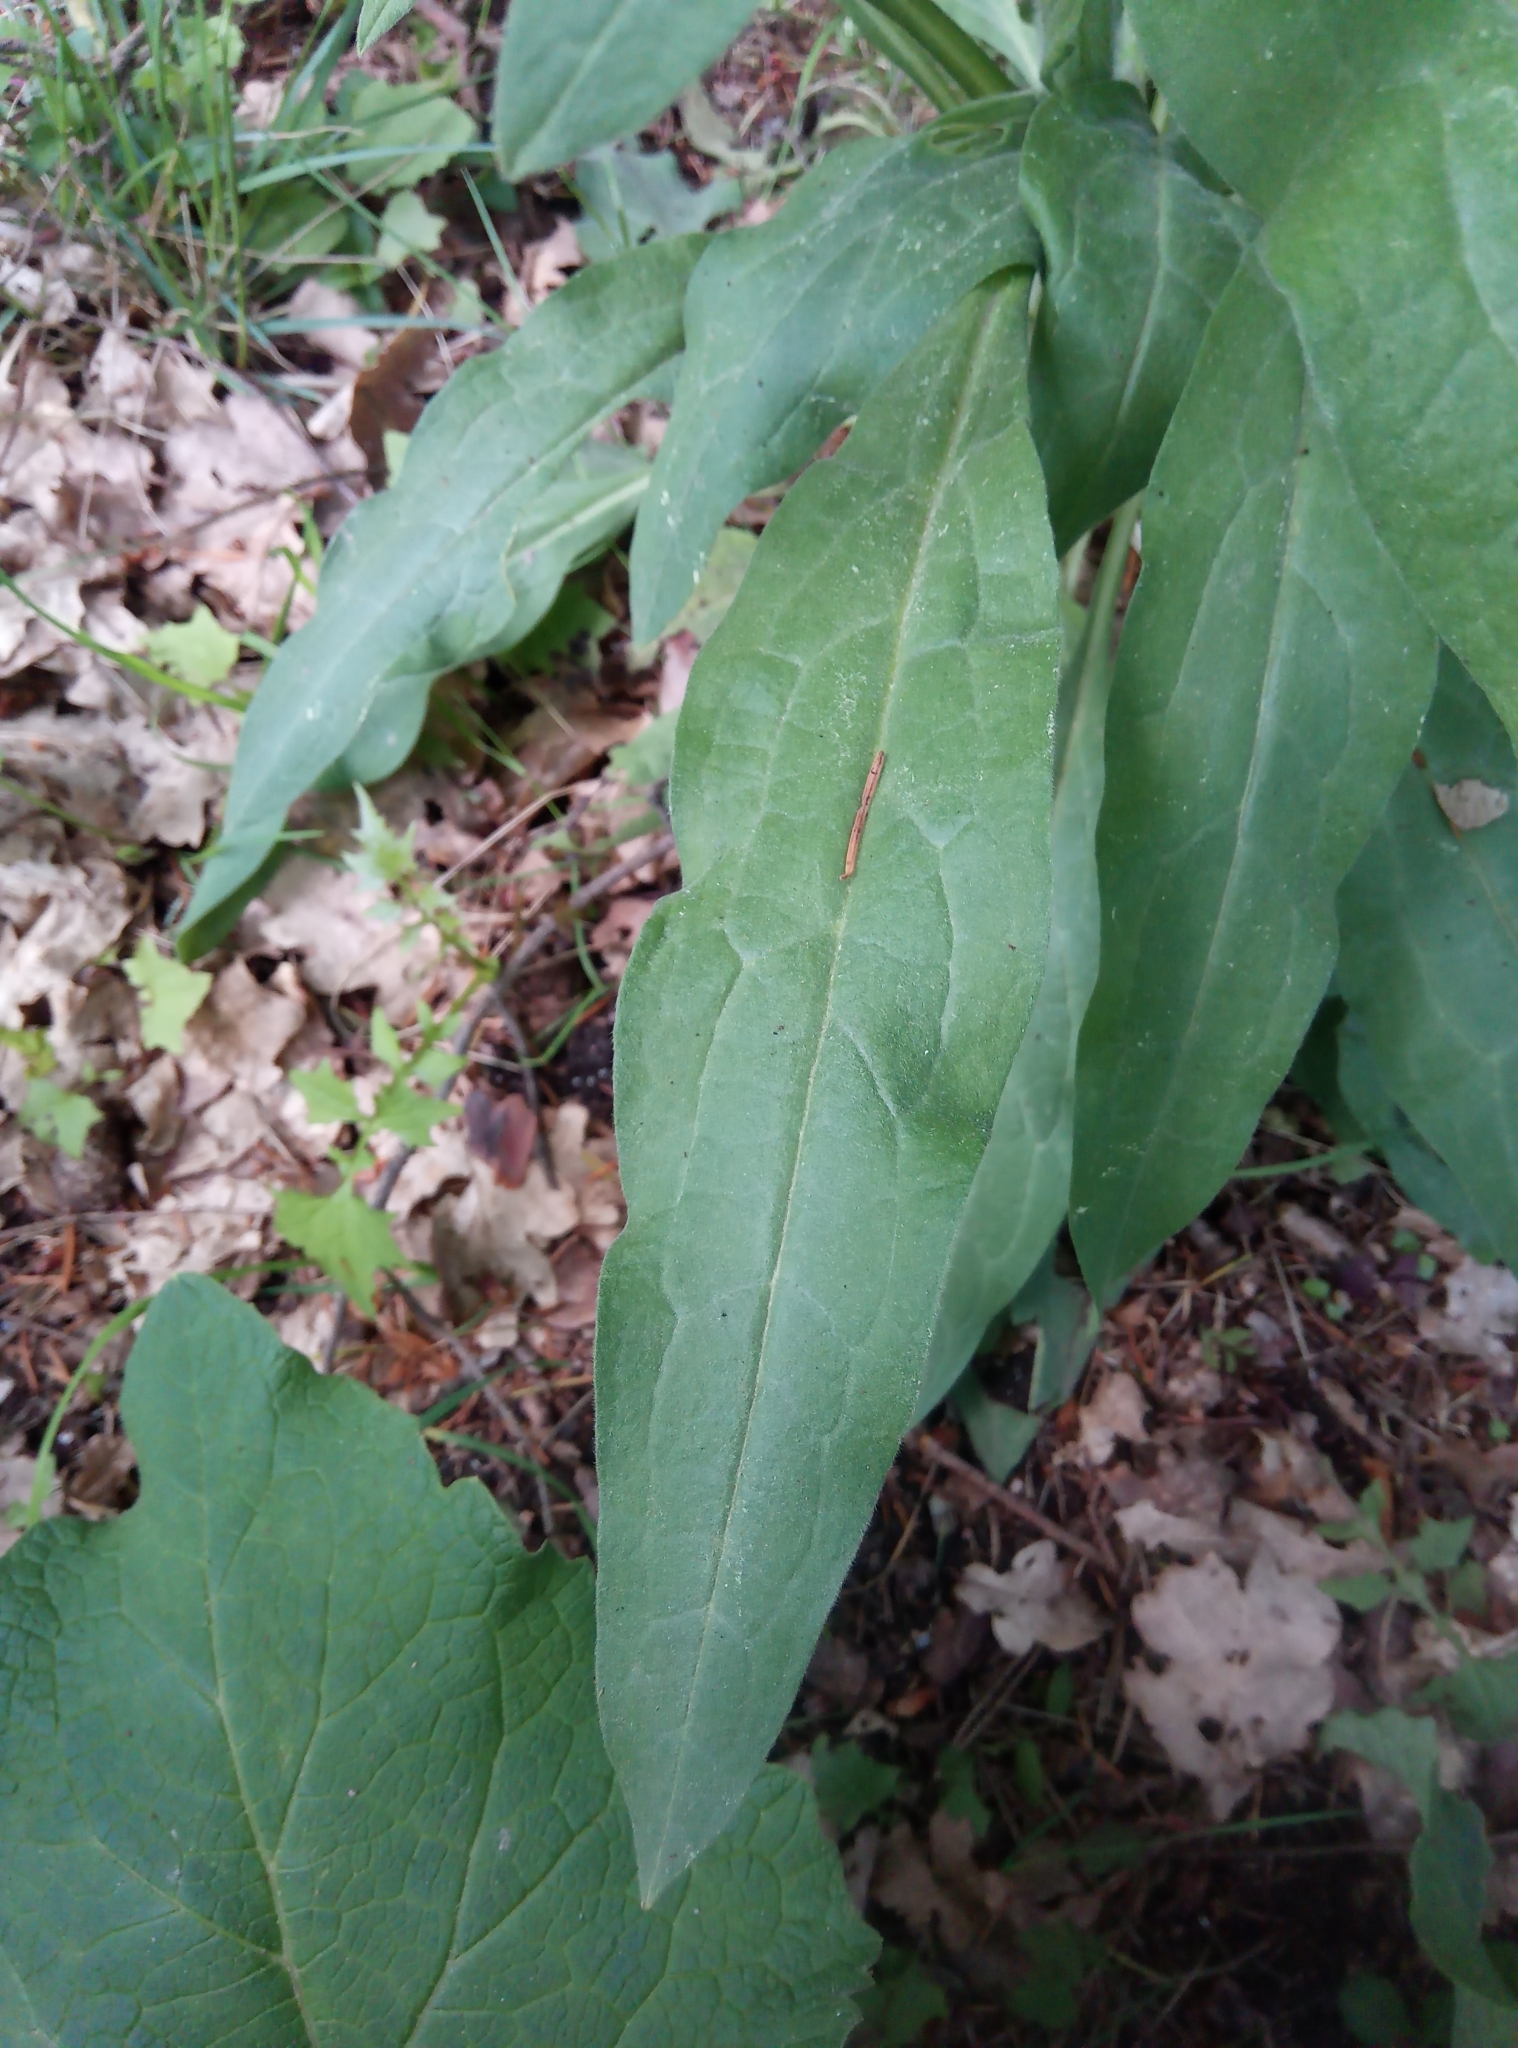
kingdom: Plantae
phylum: Tracheophyta
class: Magnoliopsida
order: Boraginales
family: Boraginaceae
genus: Cynoglossum
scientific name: Cynoglossum officinale
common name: Hound's-tongue
